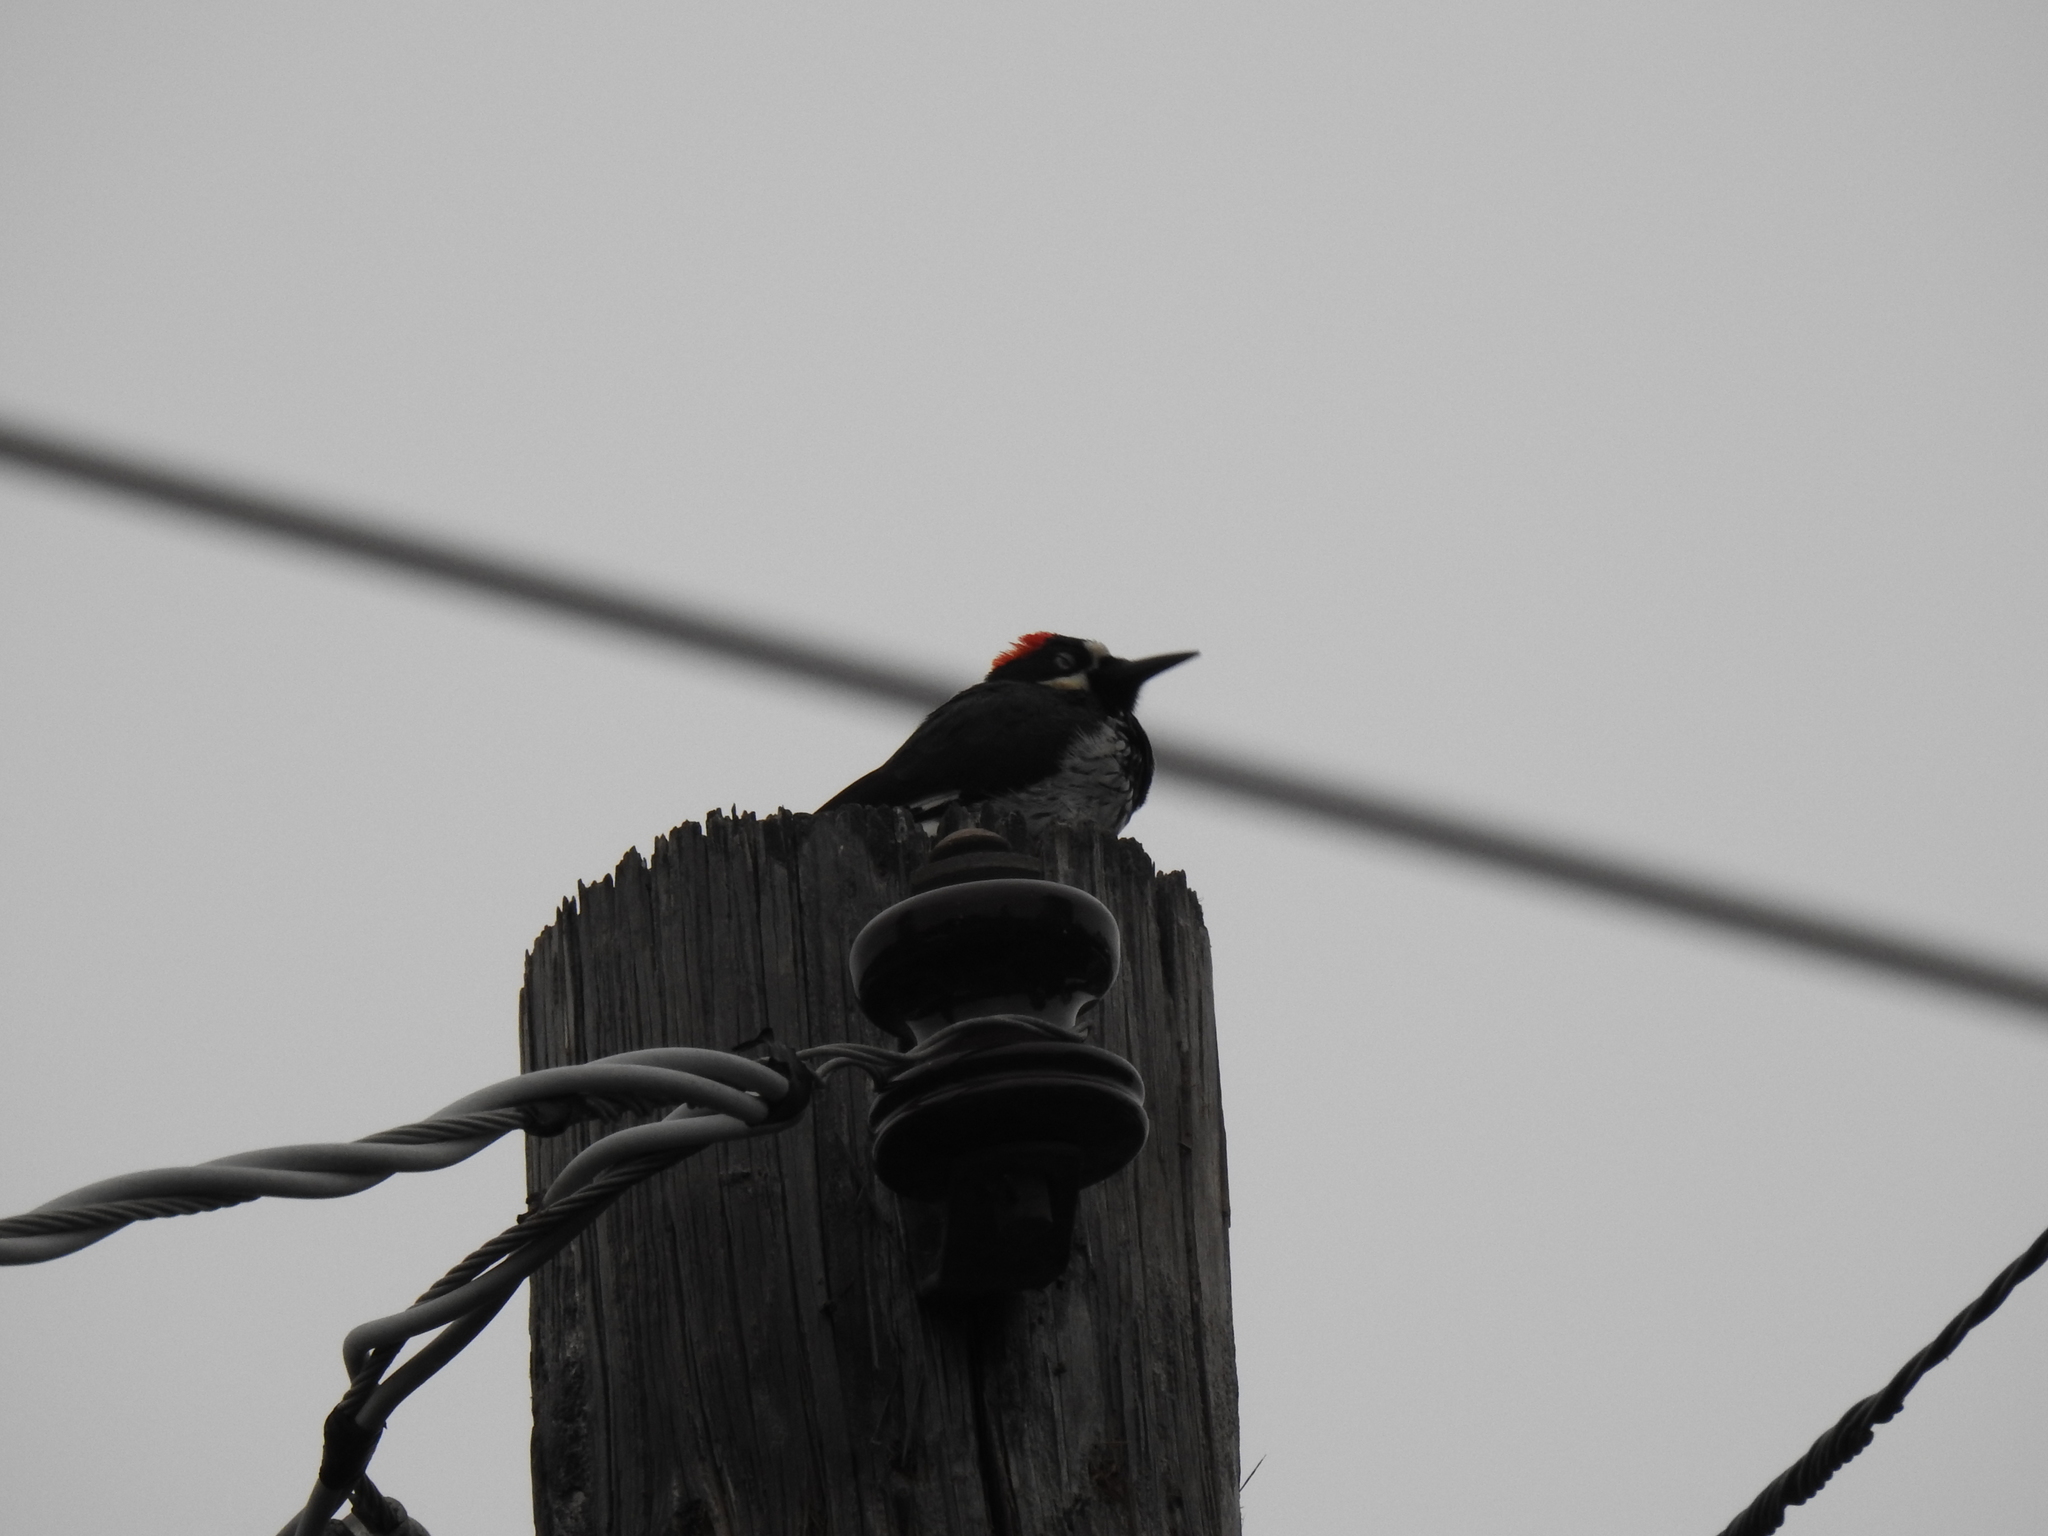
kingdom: Animalia
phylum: Chordata
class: Aves
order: Piciformes
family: Picidae
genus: Melanerpes
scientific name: Melanerpes formicivorus
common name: Acorn woodpecker
